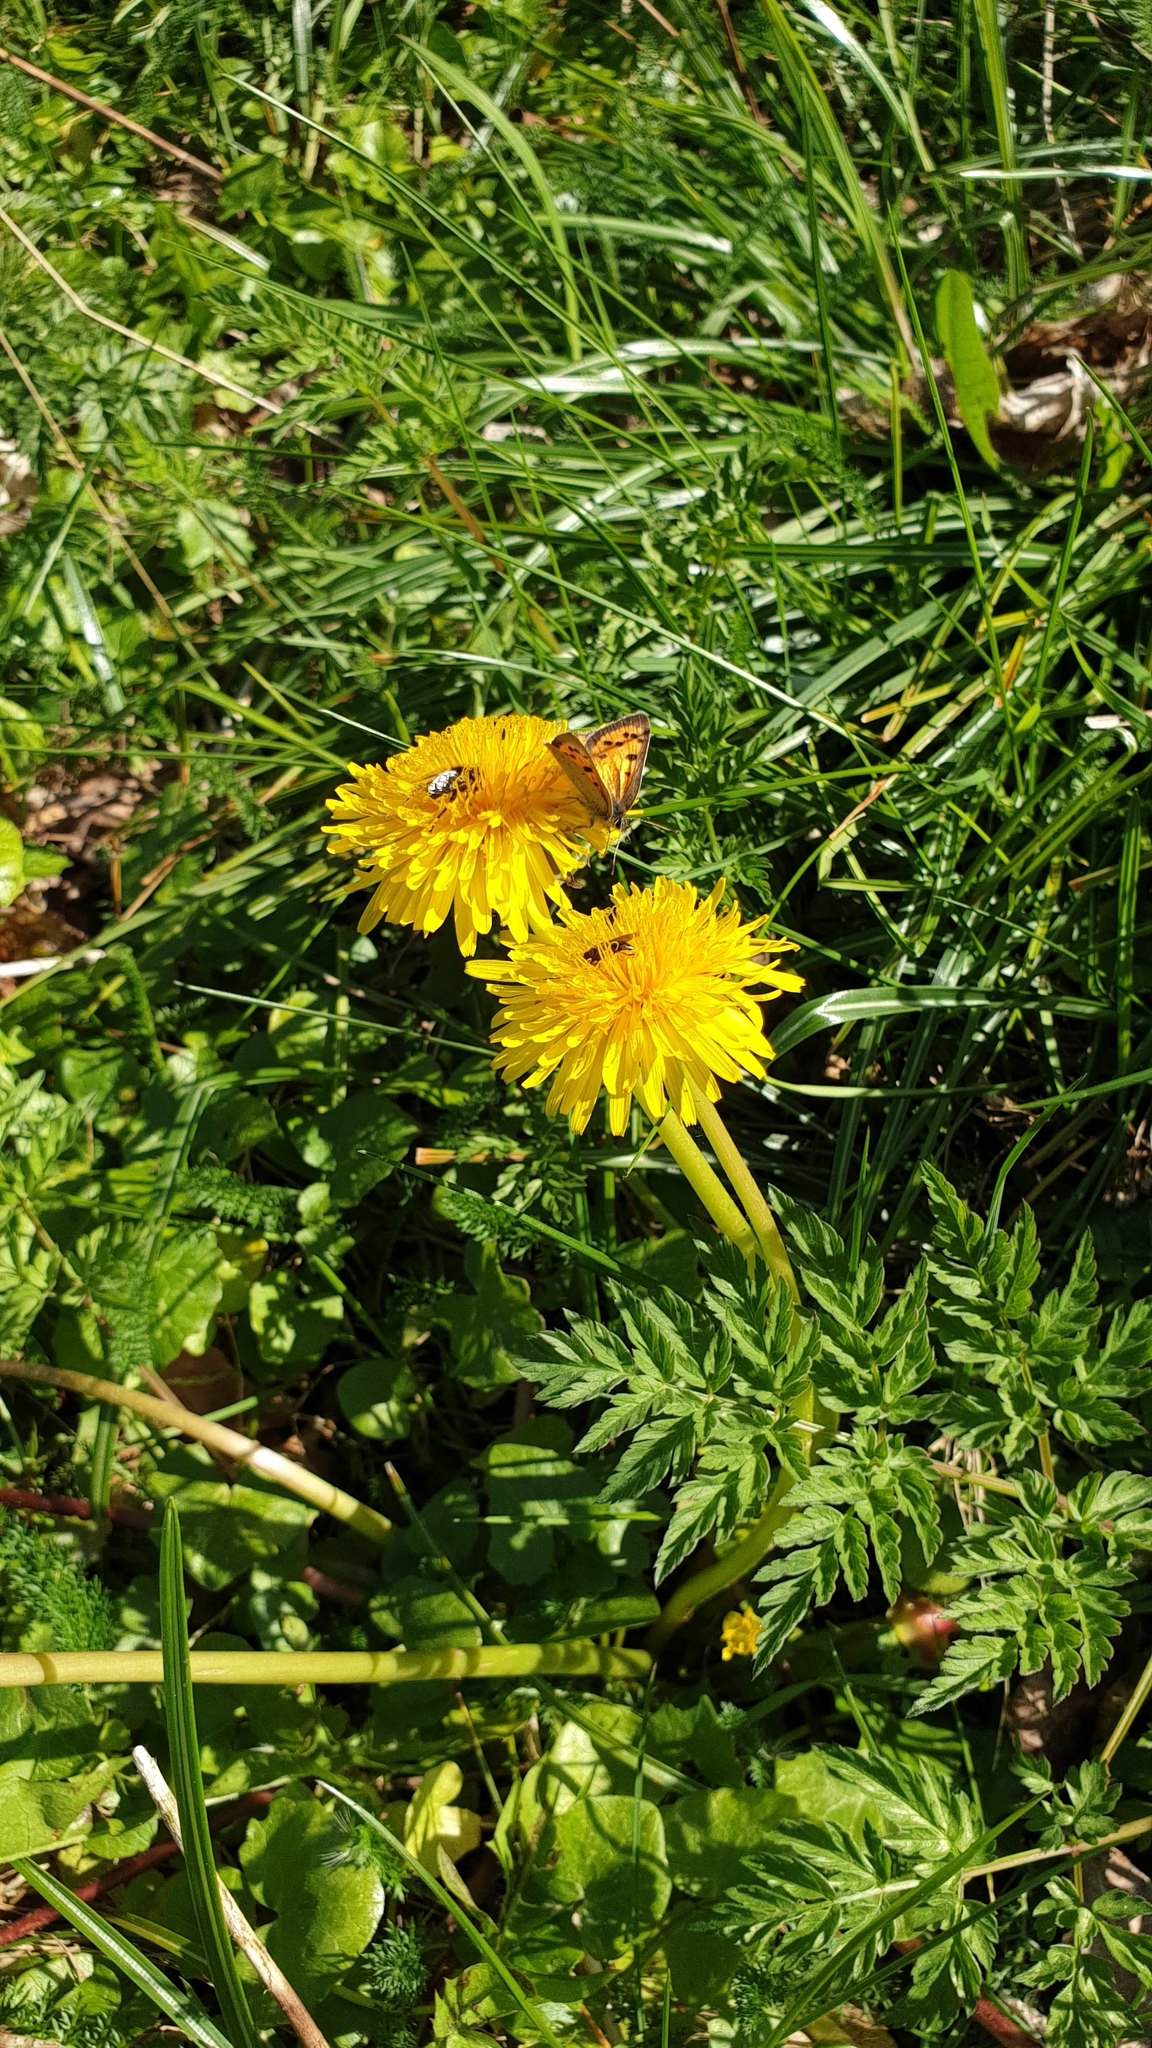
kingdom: Animalia
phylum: Arthropoda
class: Insecta
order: Lepidoptera
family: Lycaenidae
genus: Lycaena
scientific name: Lycaena phlaeas
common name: Small copper
